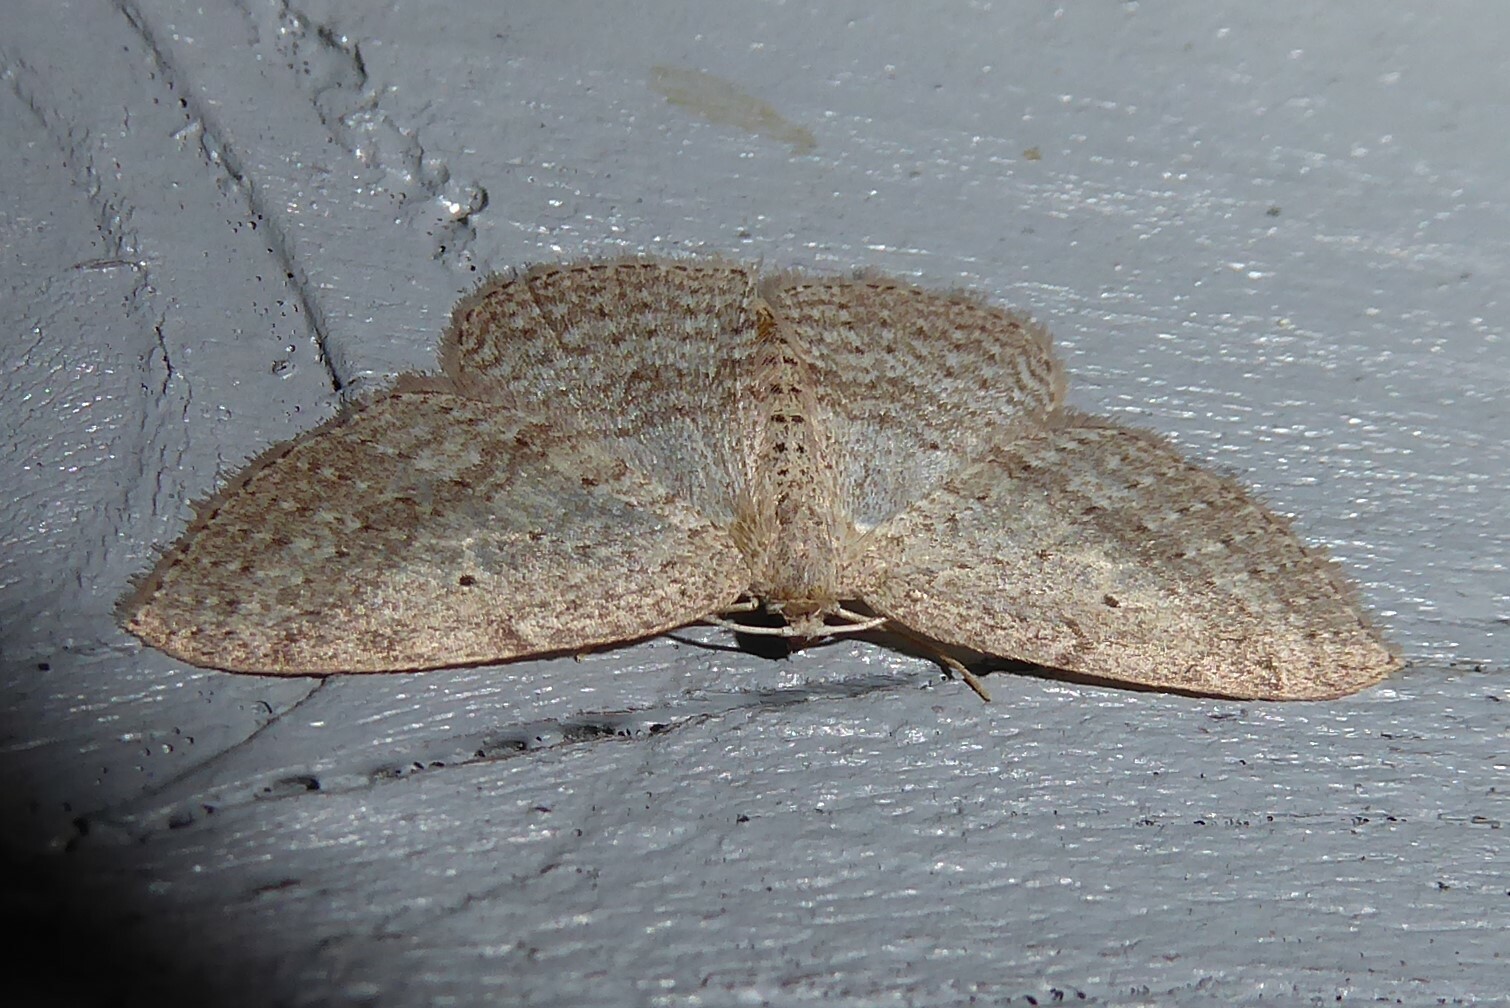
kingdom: Animalia
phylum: Arthropoda
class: Insecta
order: Lepidoptera
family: Geometridae
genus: Poecilasthena
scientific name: Poecilasthena schistaria
